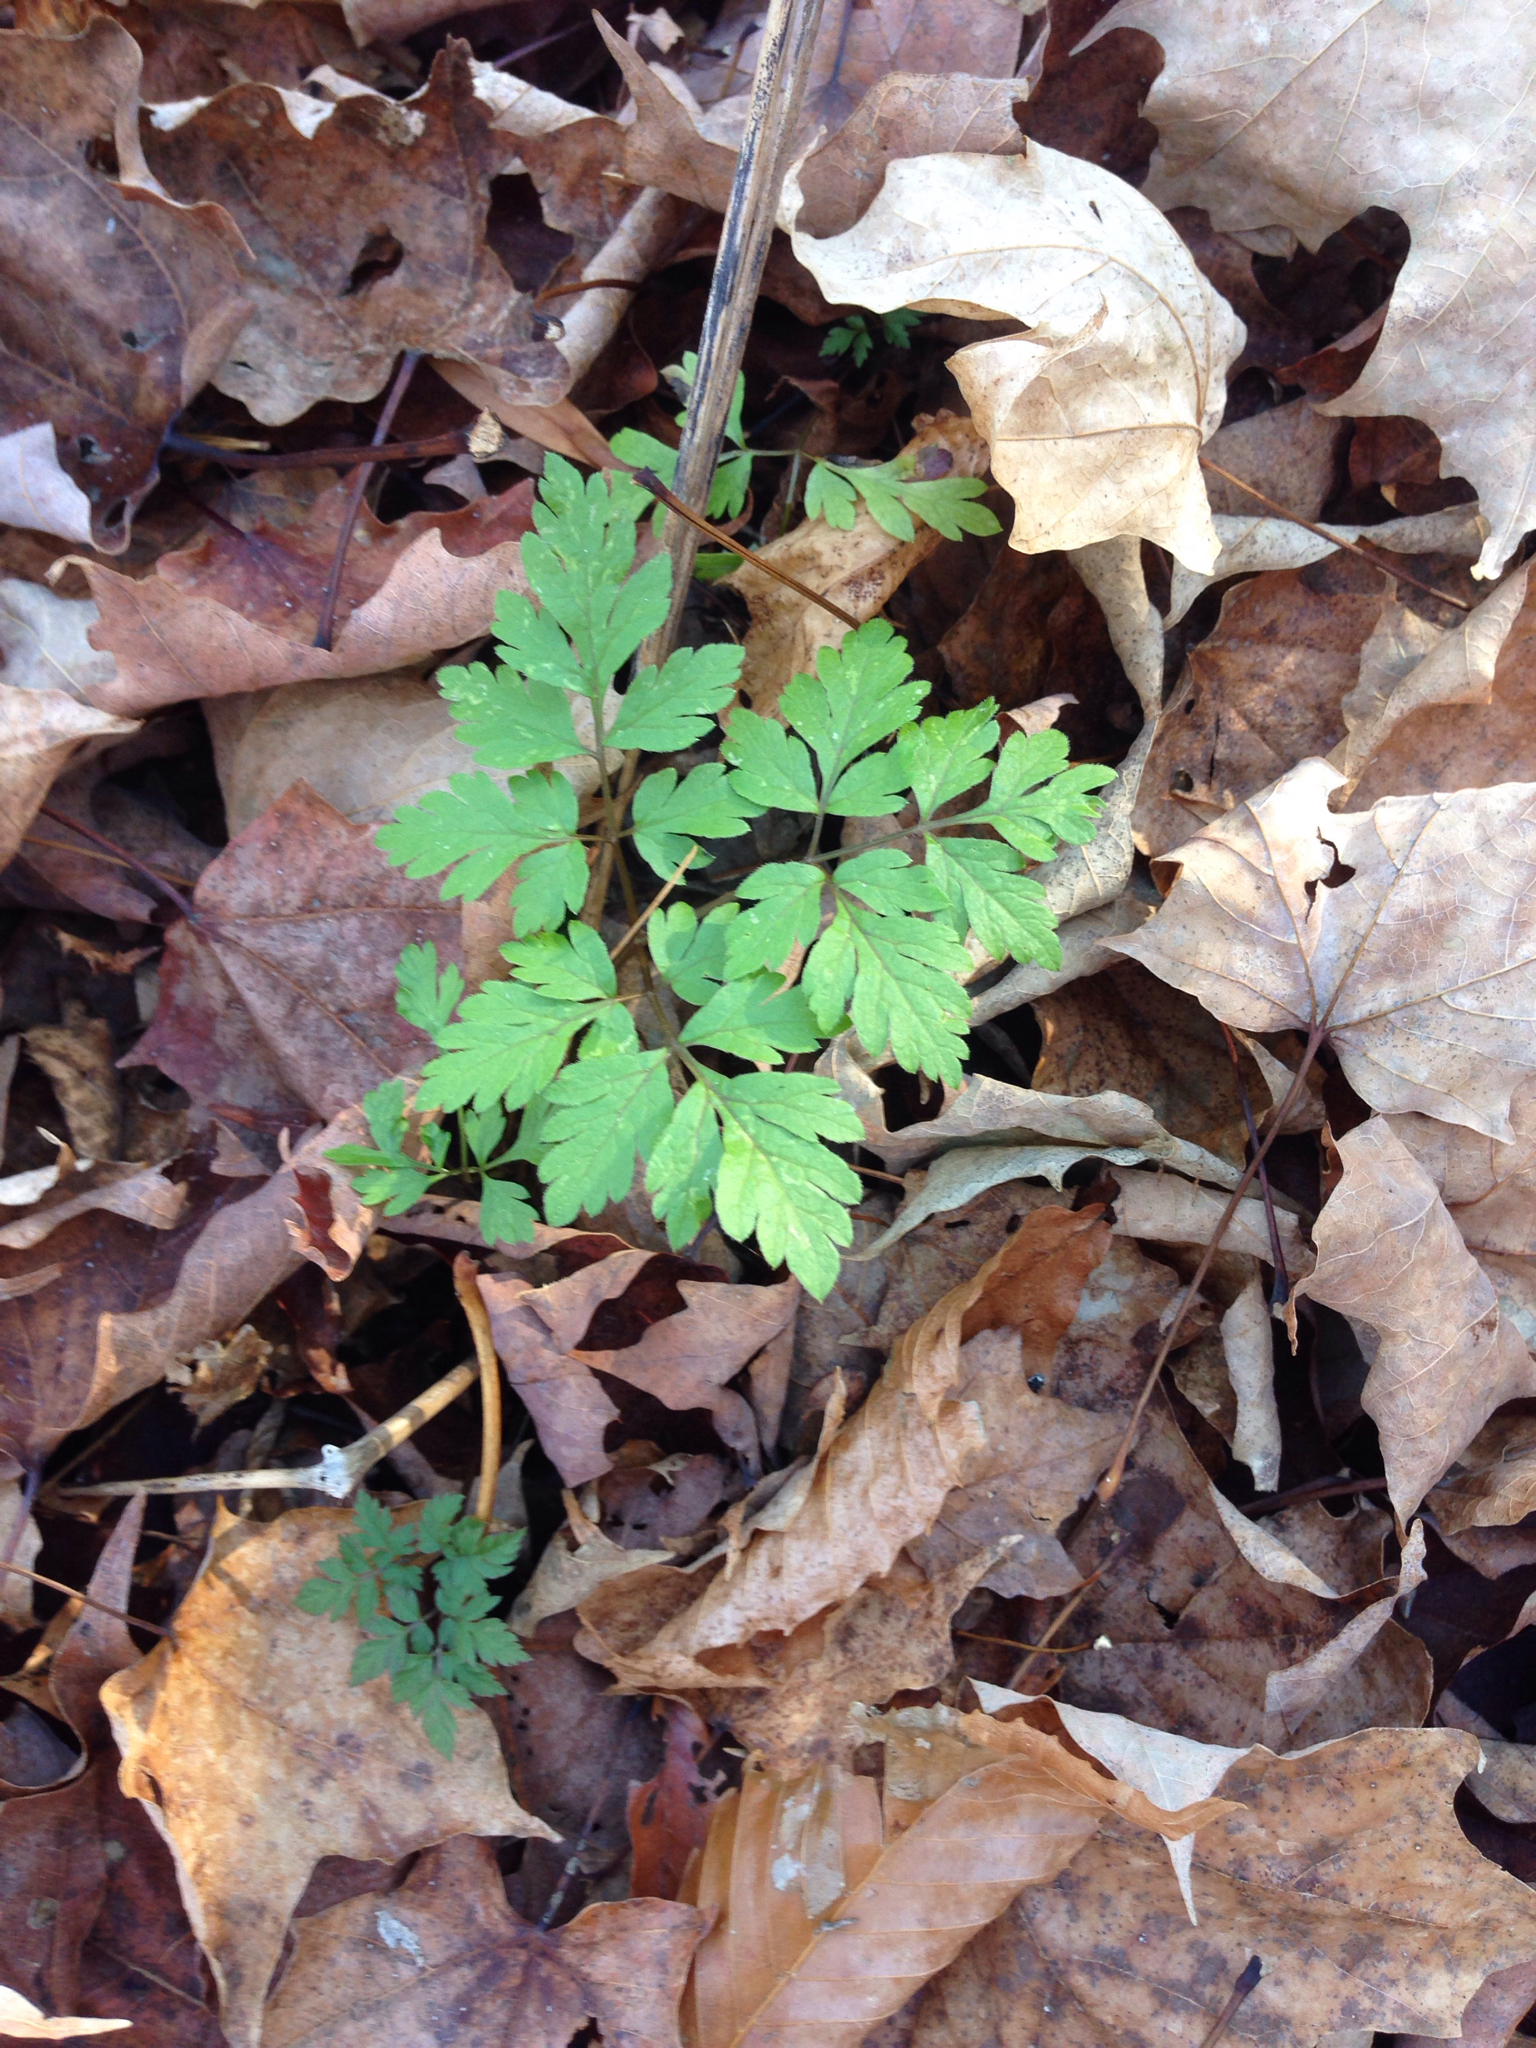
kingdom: Plantae
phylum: Tracheophyta
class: Magnoliopsida
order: Geraniales
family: Geraniaceae
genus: Geranium
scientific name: Geranium robertianum
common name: Herb-robert
